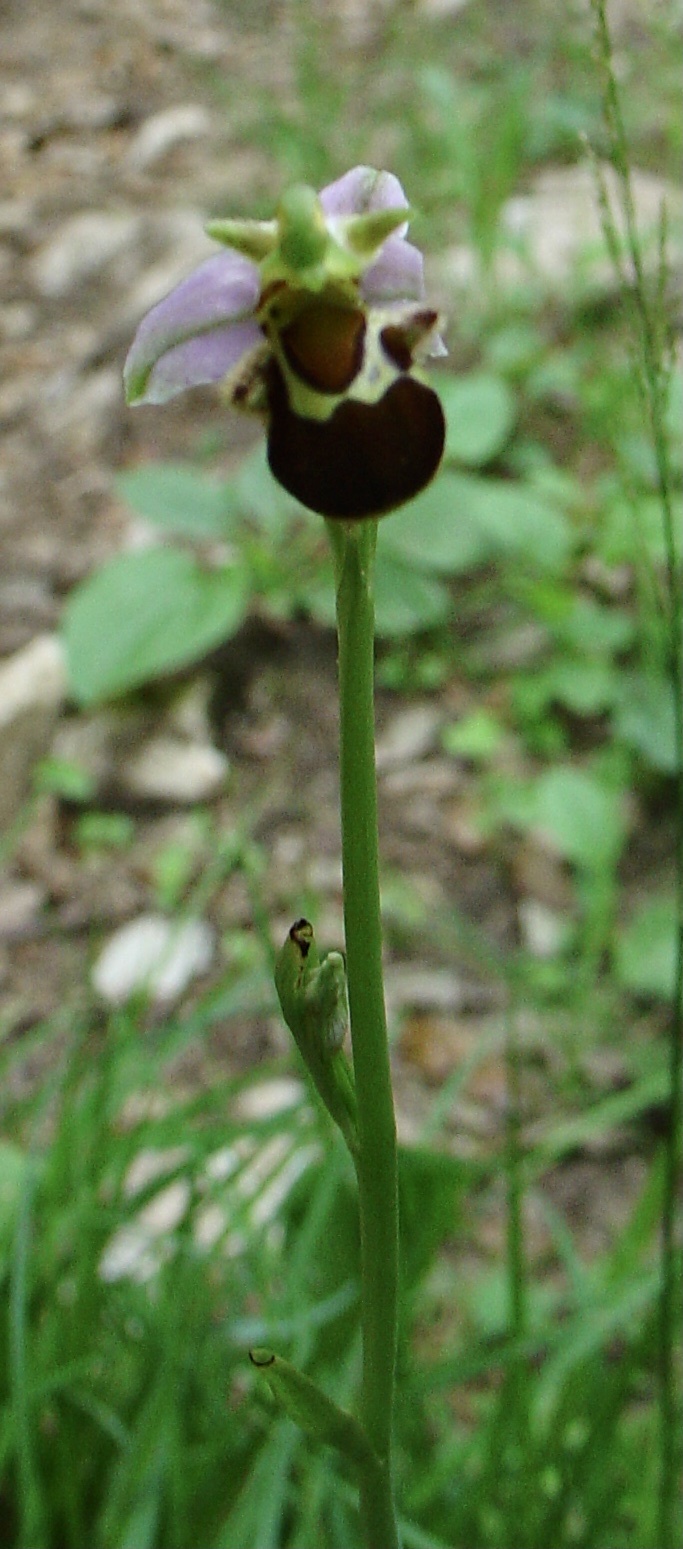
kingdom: Plantae
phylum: Tracheophyta
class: Liliopsida
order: Asparagales
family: Orchidaceae
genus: Ophrys
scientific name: Ophrys apifera
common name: Bee orchid
